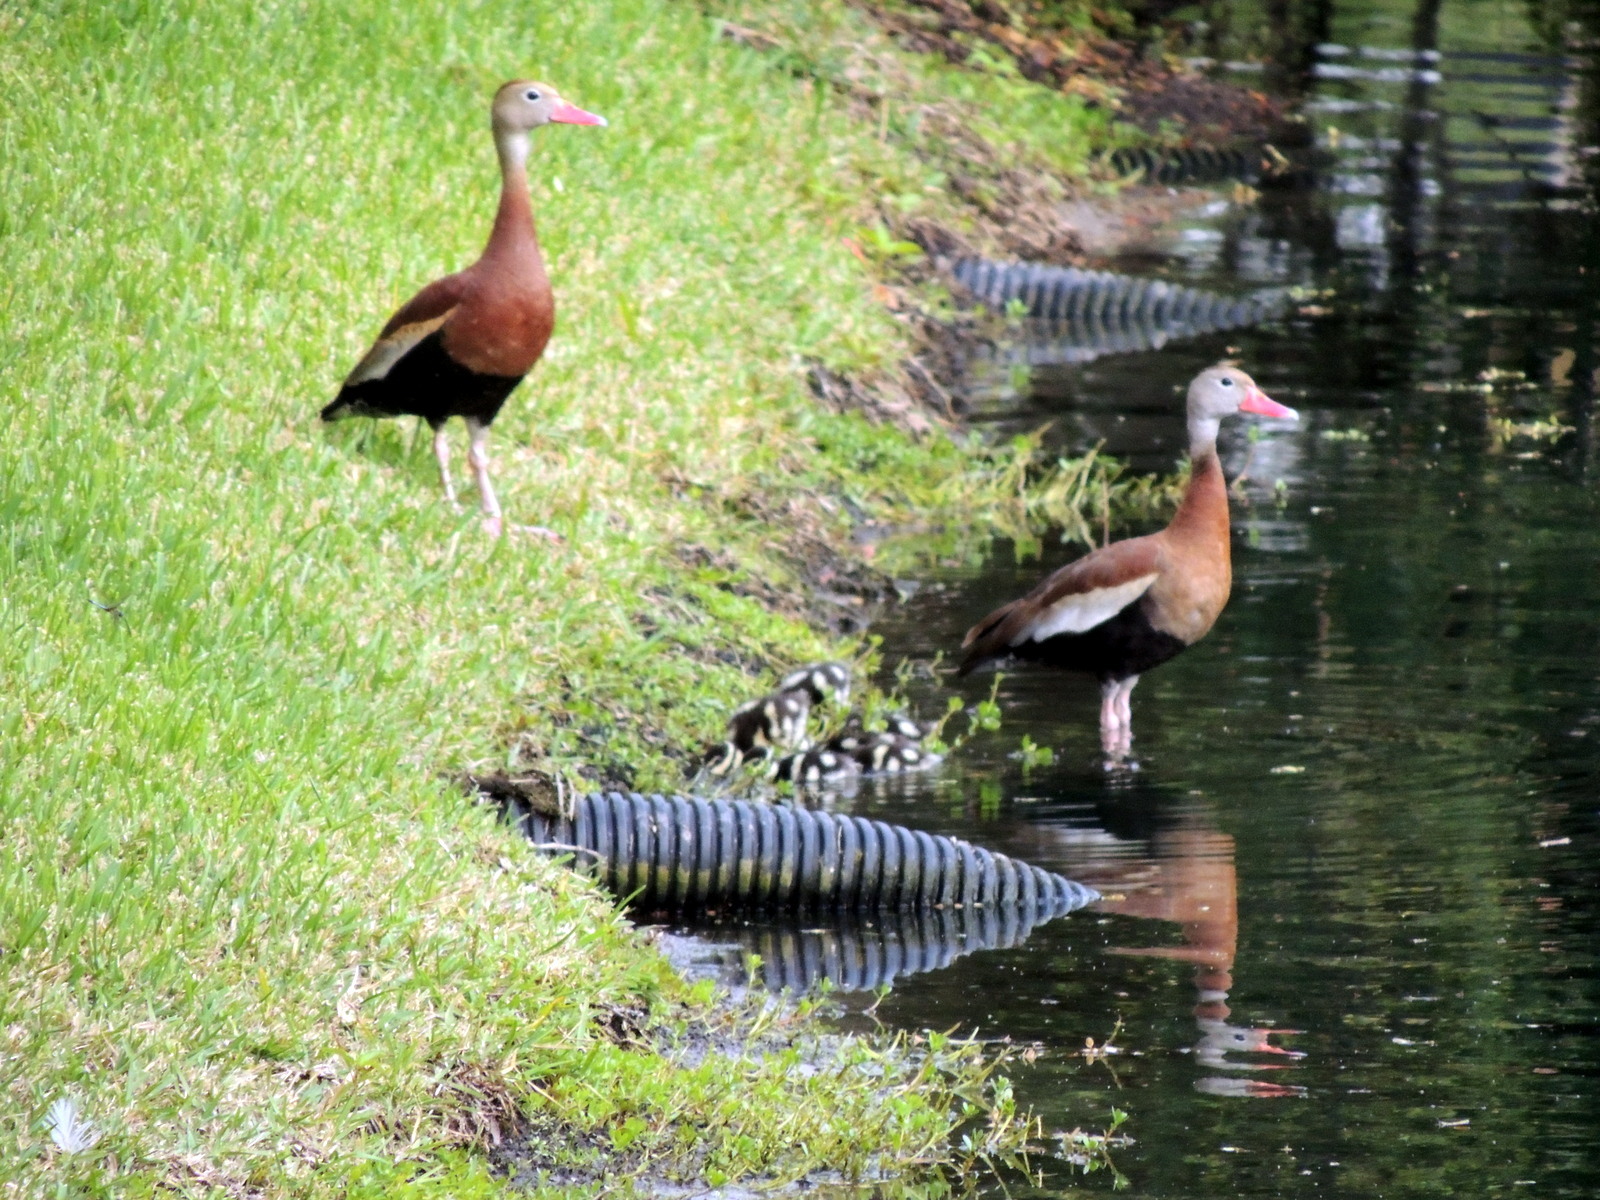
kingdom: Animalia
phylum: Chordata
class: Aves
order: Anseriformes
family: Anatidae
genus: Dendrocygna
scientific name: Dendrocygna autumnalis
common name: Black-bellied whistling duck
